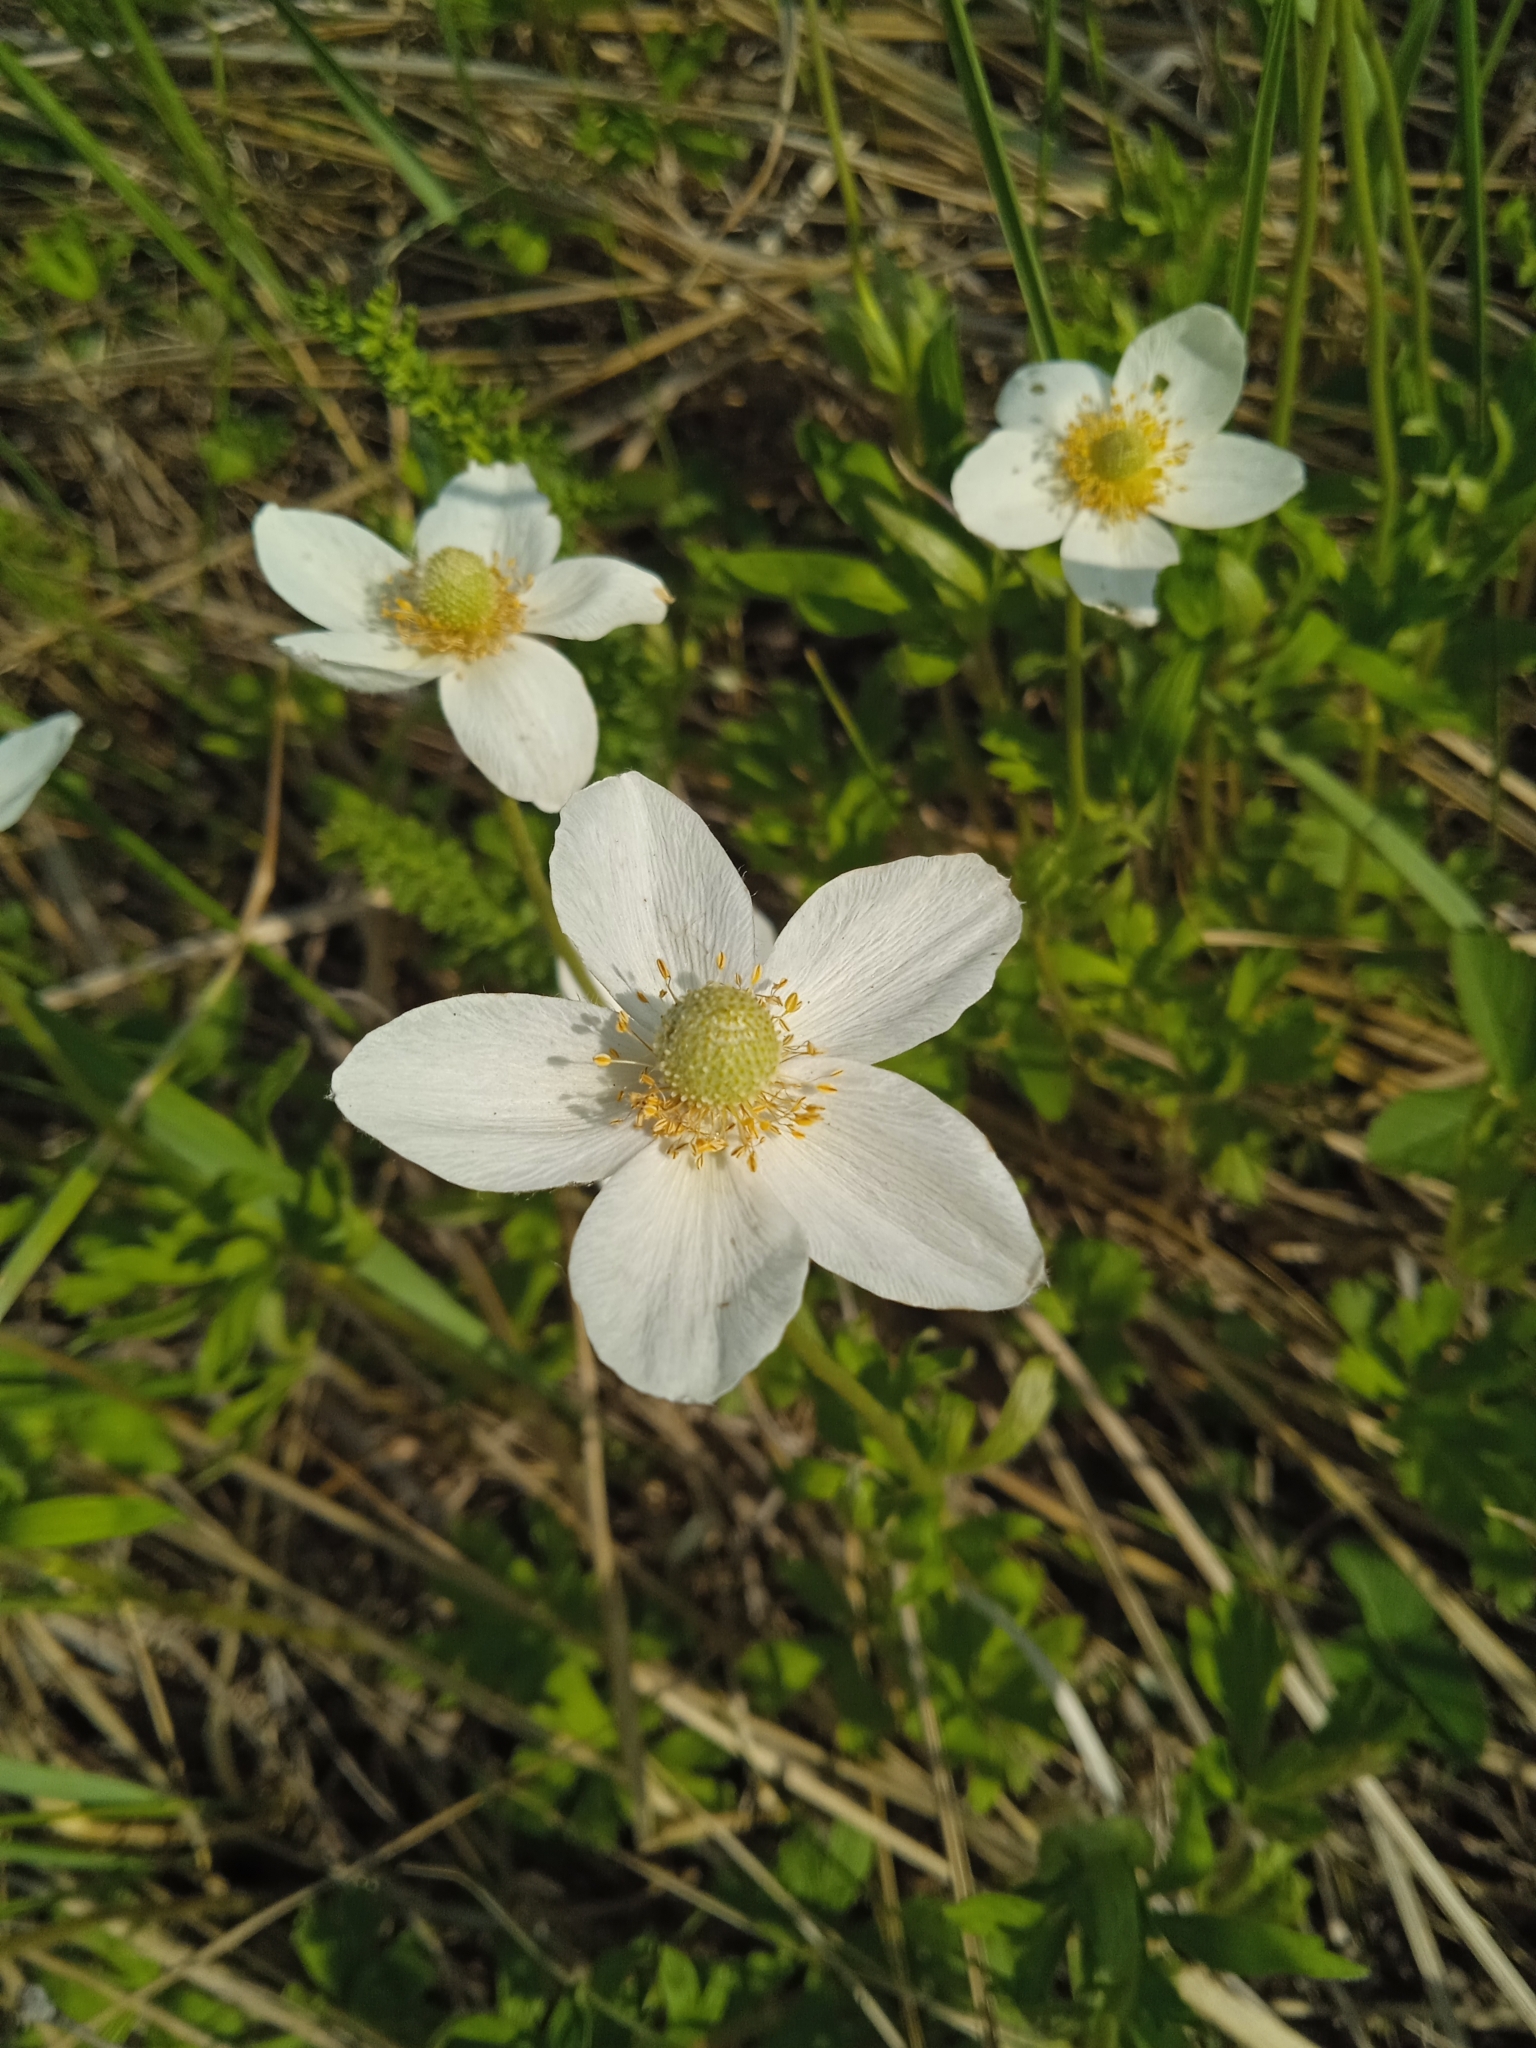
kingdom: Plantae
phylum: Tracheophyta
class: Magnoliopsida
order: Ranunculales
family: Ranunculaceae
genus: Anemone
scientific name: Anemone sylvestris
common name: Snowdrop anemone
